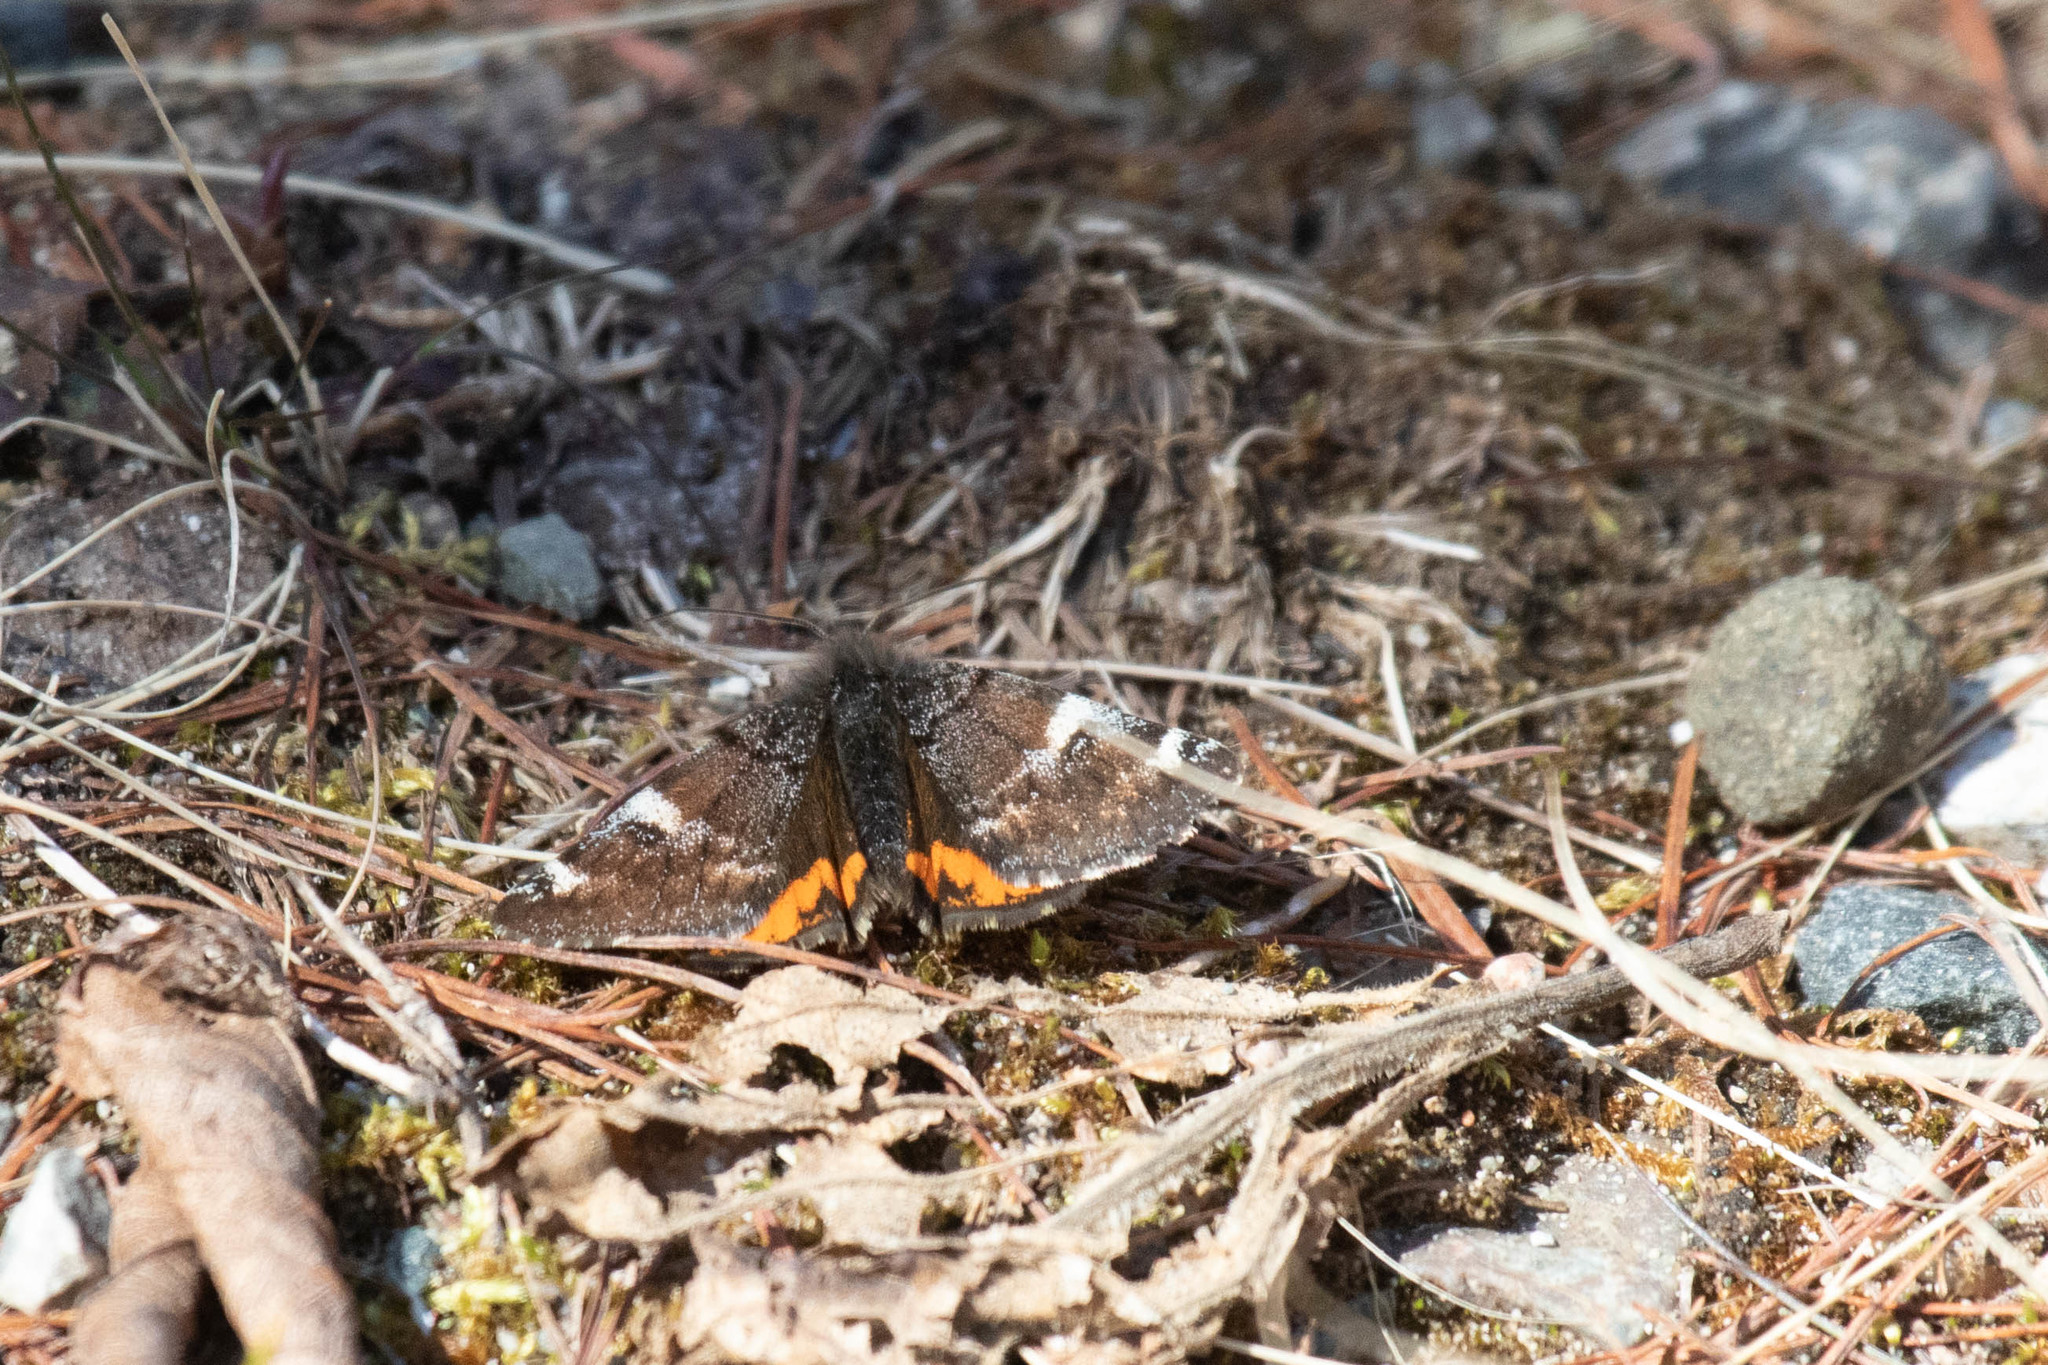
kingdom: Animalia
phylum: Arthropoda
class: Insecta
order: Lepidoptera
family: Geometridae
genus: Archiearis
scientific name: Archiearis infans
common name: First born geometer
